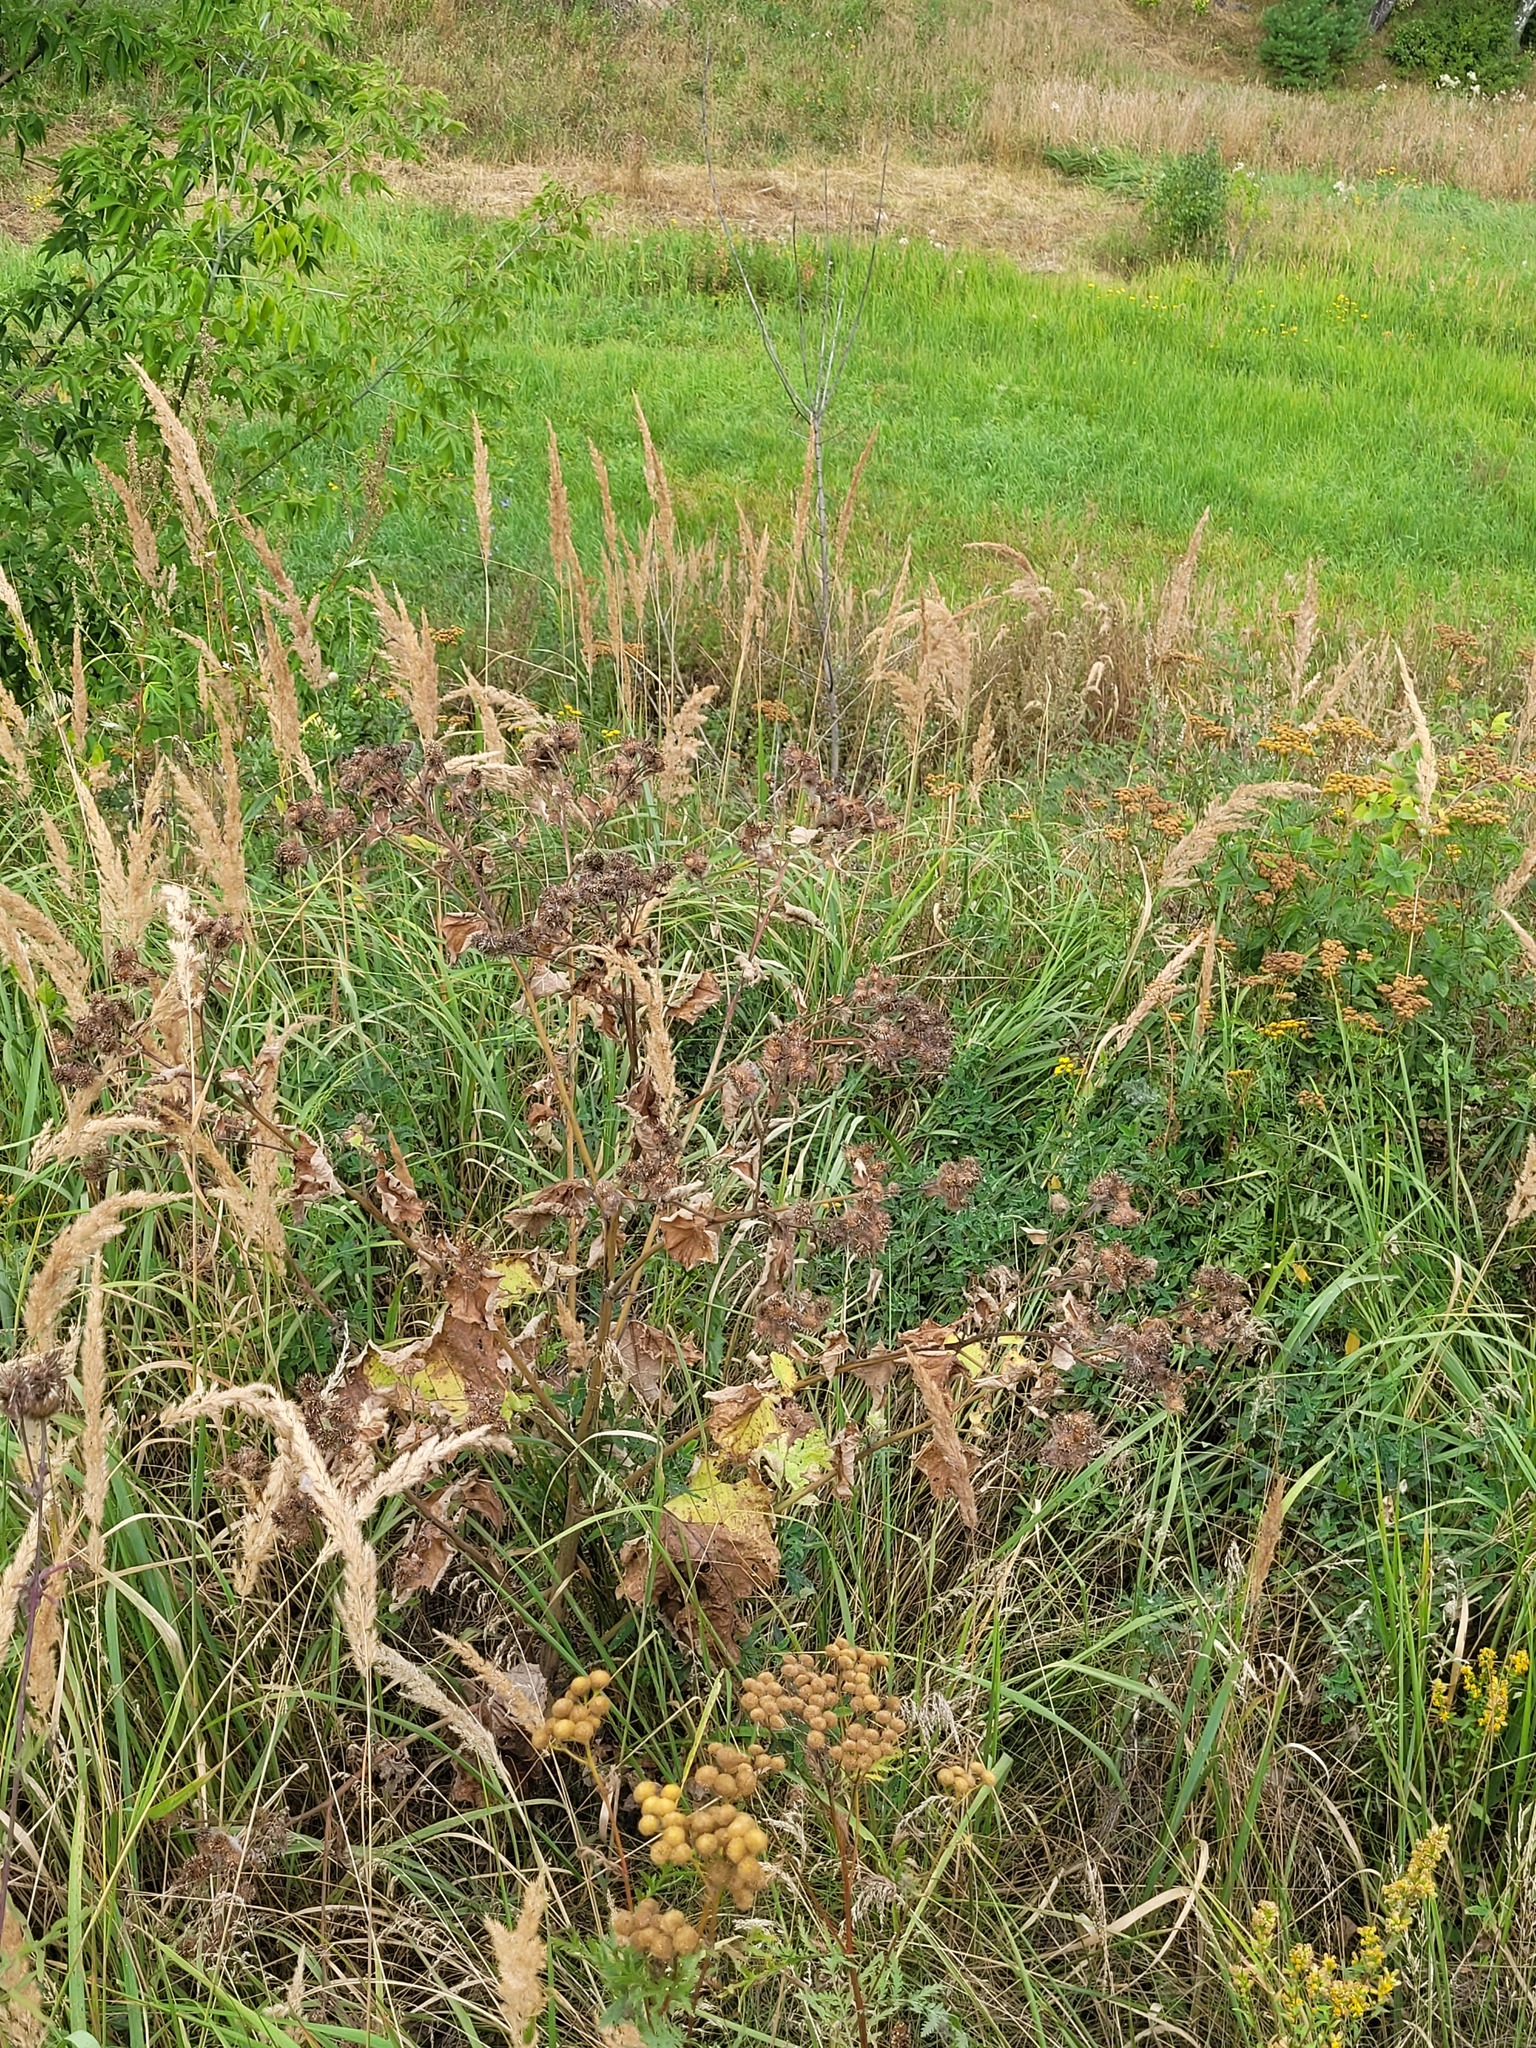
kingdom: Plantae
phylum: Tracheophyta
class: Magnoliopsida
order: Asterales
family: Asteraceae
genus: Arctium
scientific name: Arctium tomentosum
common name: Woolly burdock
